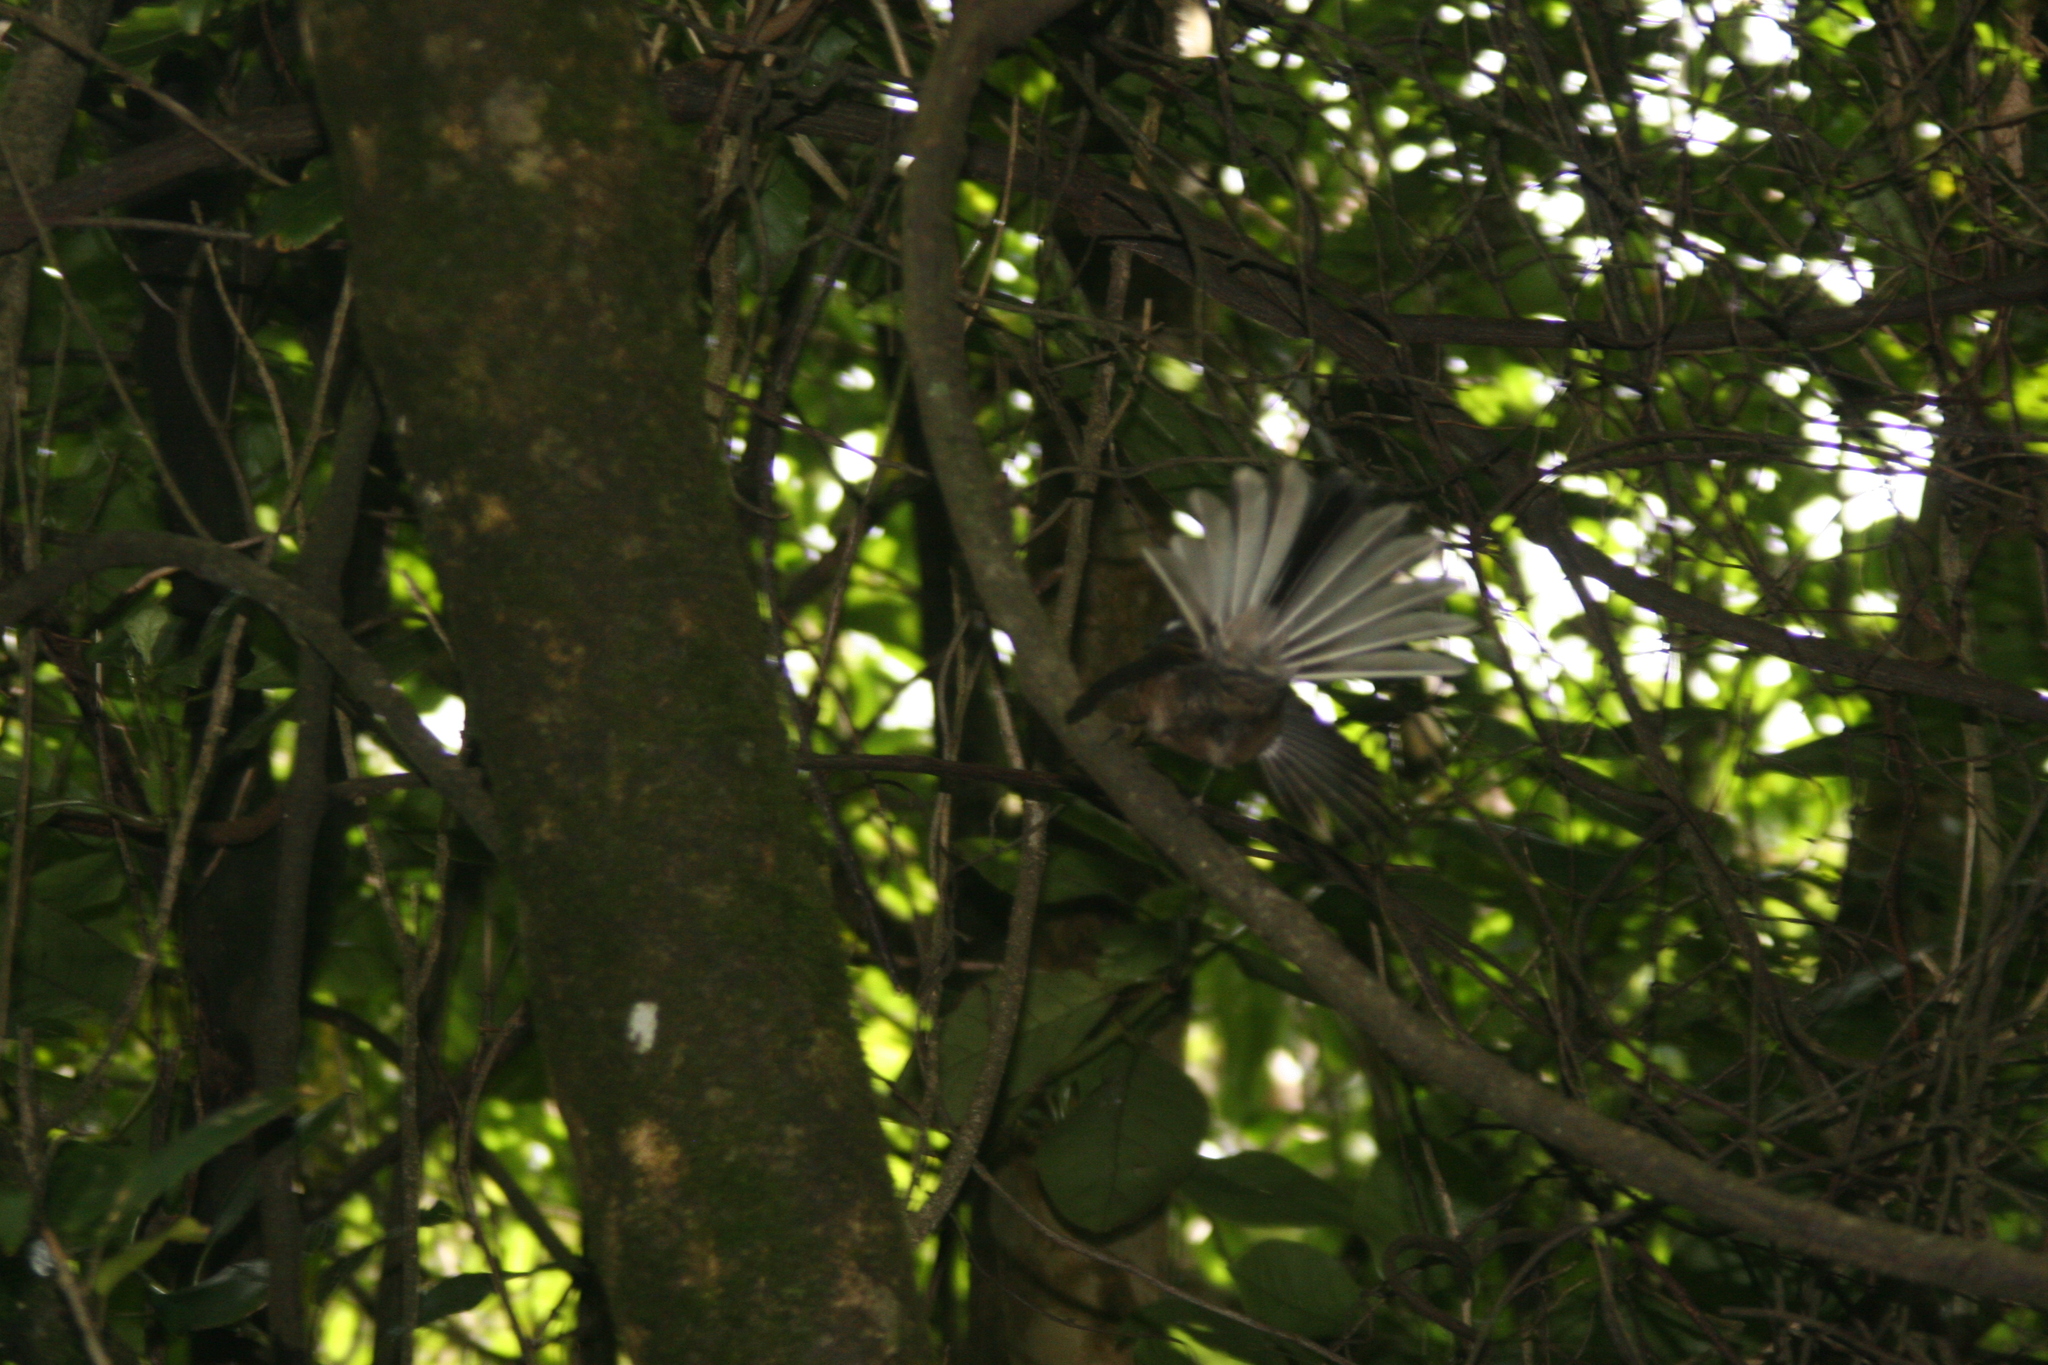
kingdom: Animalia
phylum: Chordata
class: Aves
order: Passeriformes
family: Rhipiduridae
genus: Rhipidura
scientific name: Rhipidura fuliginosa
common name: New zealand fantail
